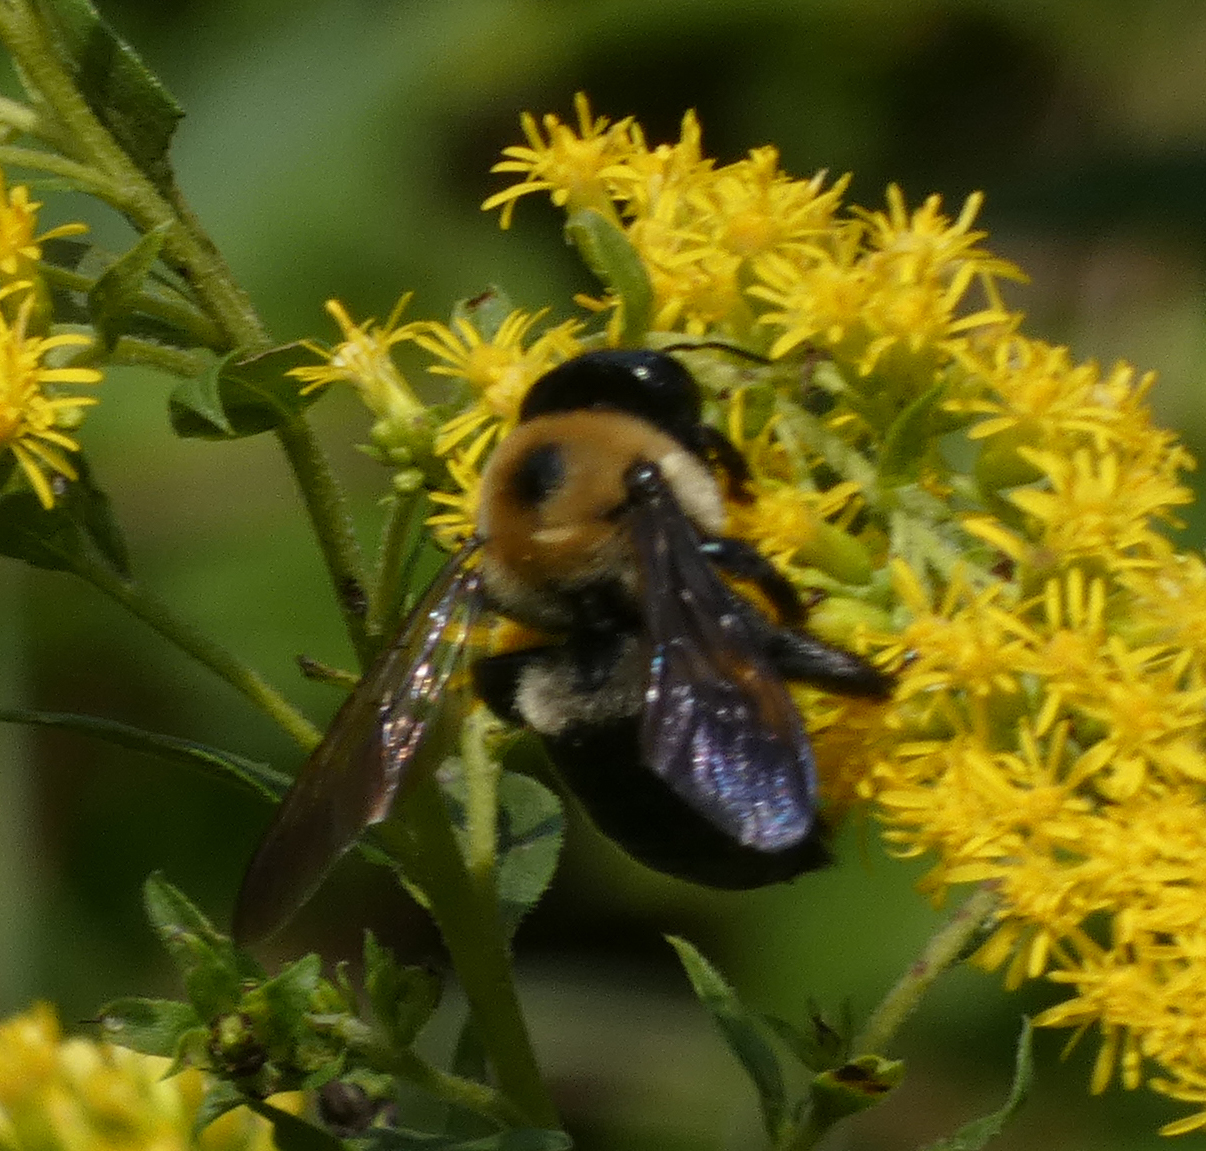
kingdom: Animalia
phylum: Arthropoda
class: Insecta
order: Hymenoptera
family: Apidae
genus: Xylocopa
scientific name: Xylocopa virginica
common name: Carpenter bee
